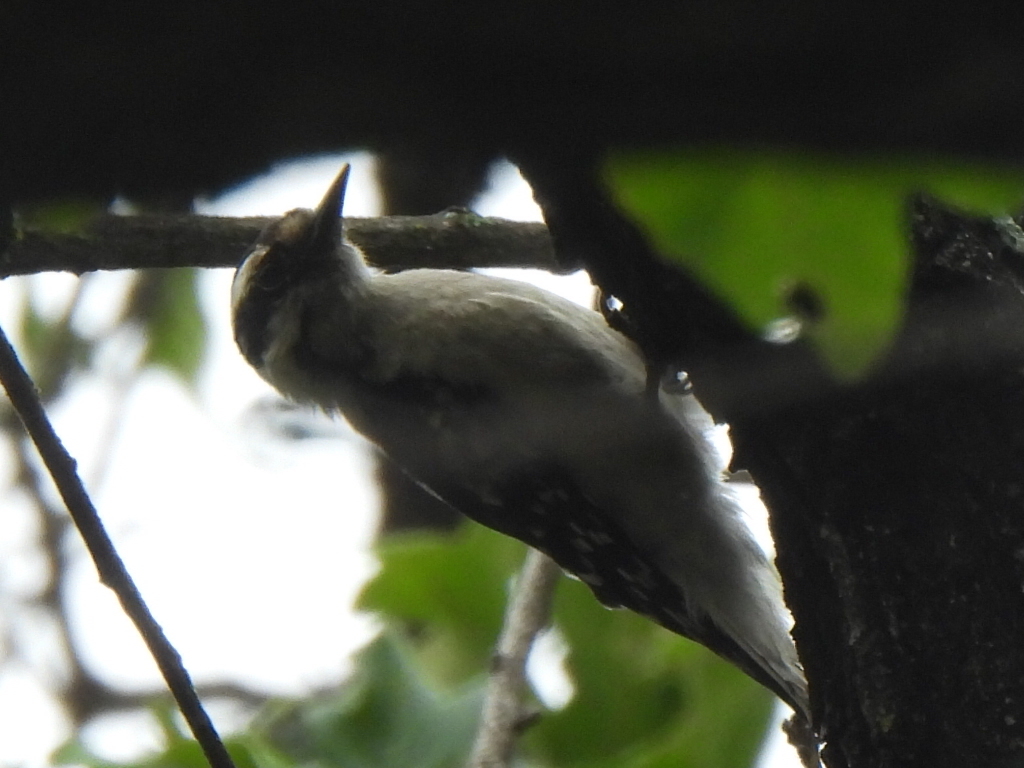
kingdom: Animalia
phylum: Chordata
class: Aves
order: Piciformes
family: Picidae
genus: Dryobates
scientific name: Dryobates pubescens
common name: Downy woodpecker
